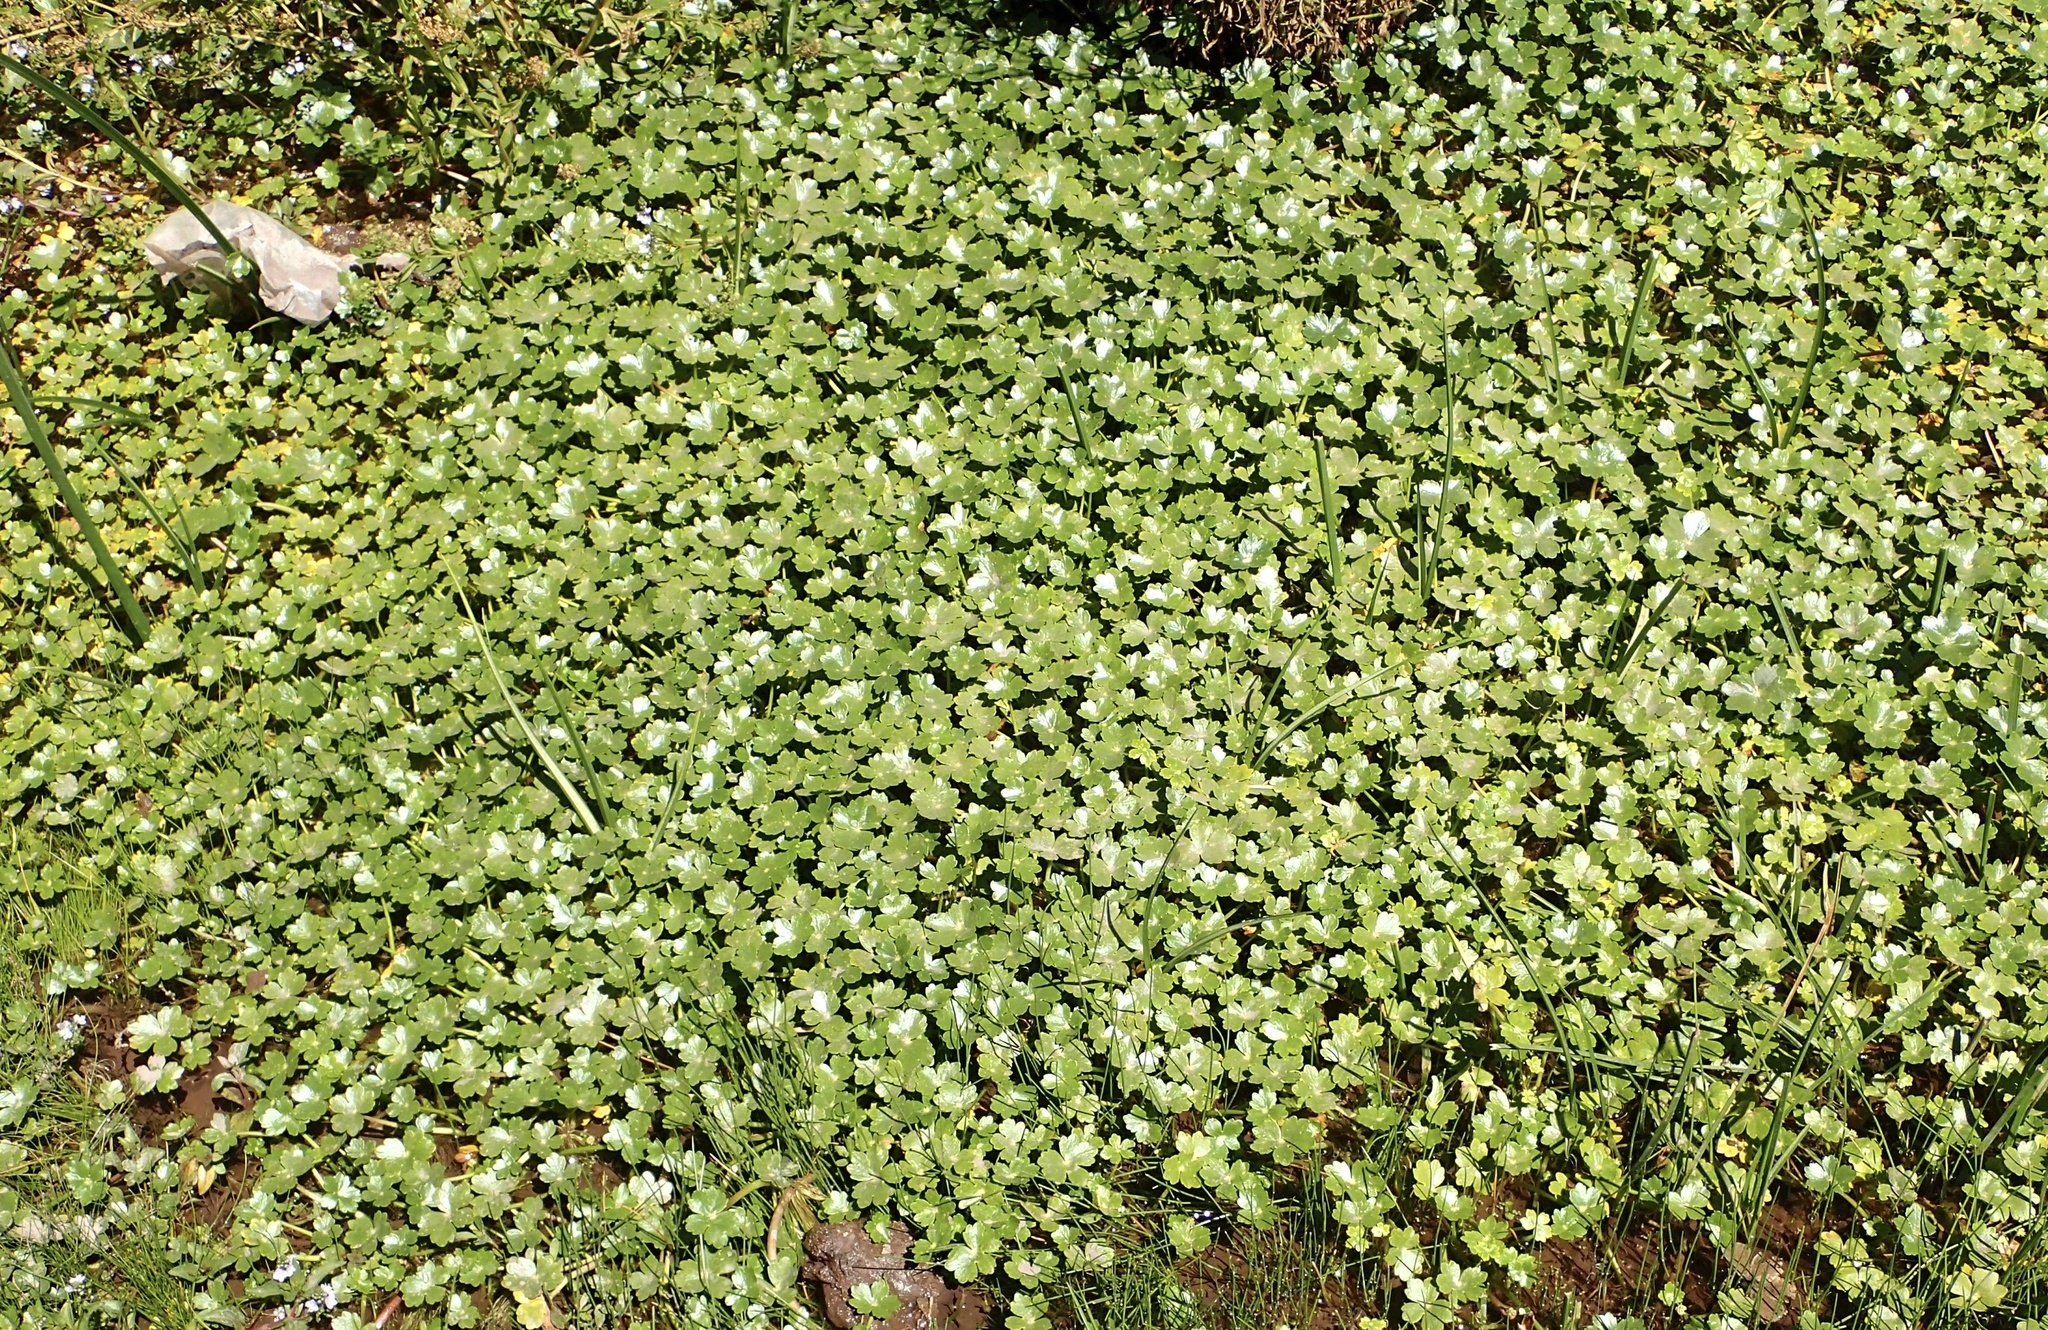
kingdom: Plantae
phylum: Tracheophyta
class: Magnoliopsida
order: Apiales
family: Araliaceae
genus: Hydrocotyle
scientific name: Hydrocotyle ranunculoides
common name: Floating pennywort
